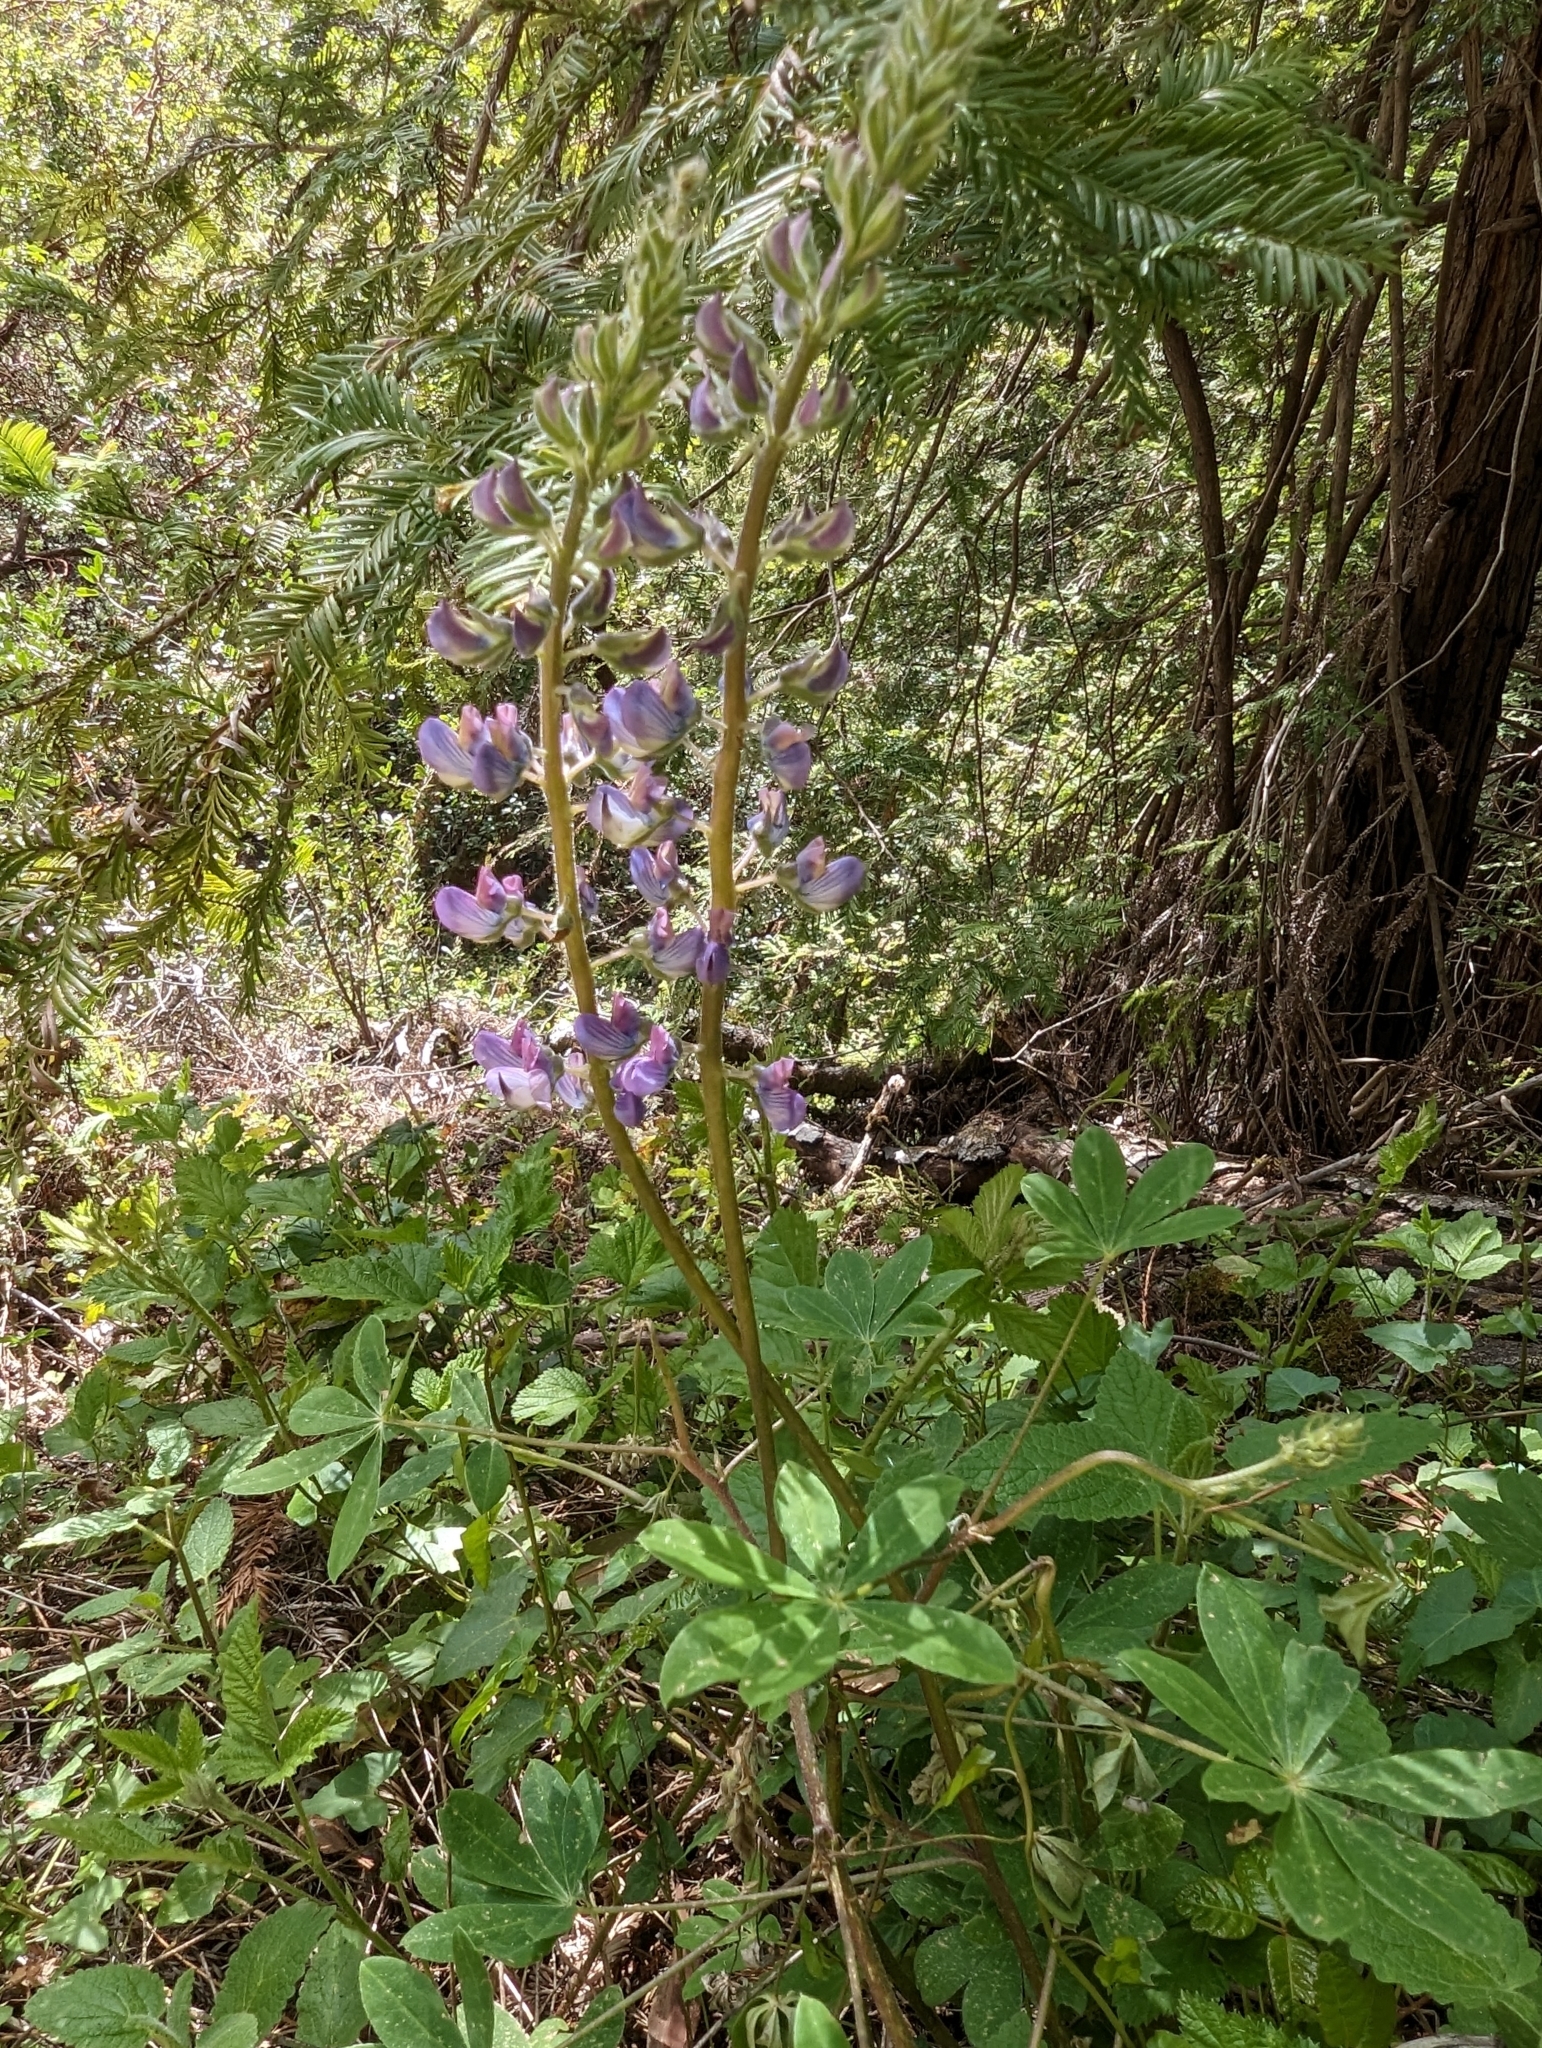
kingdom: Plantae
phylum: Tracheophyta
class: Magnoliopsida
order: Fabales
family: Fabaceae
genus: Lupinus
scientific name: Lupinus latifolius
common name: Broad-leaved lupine
